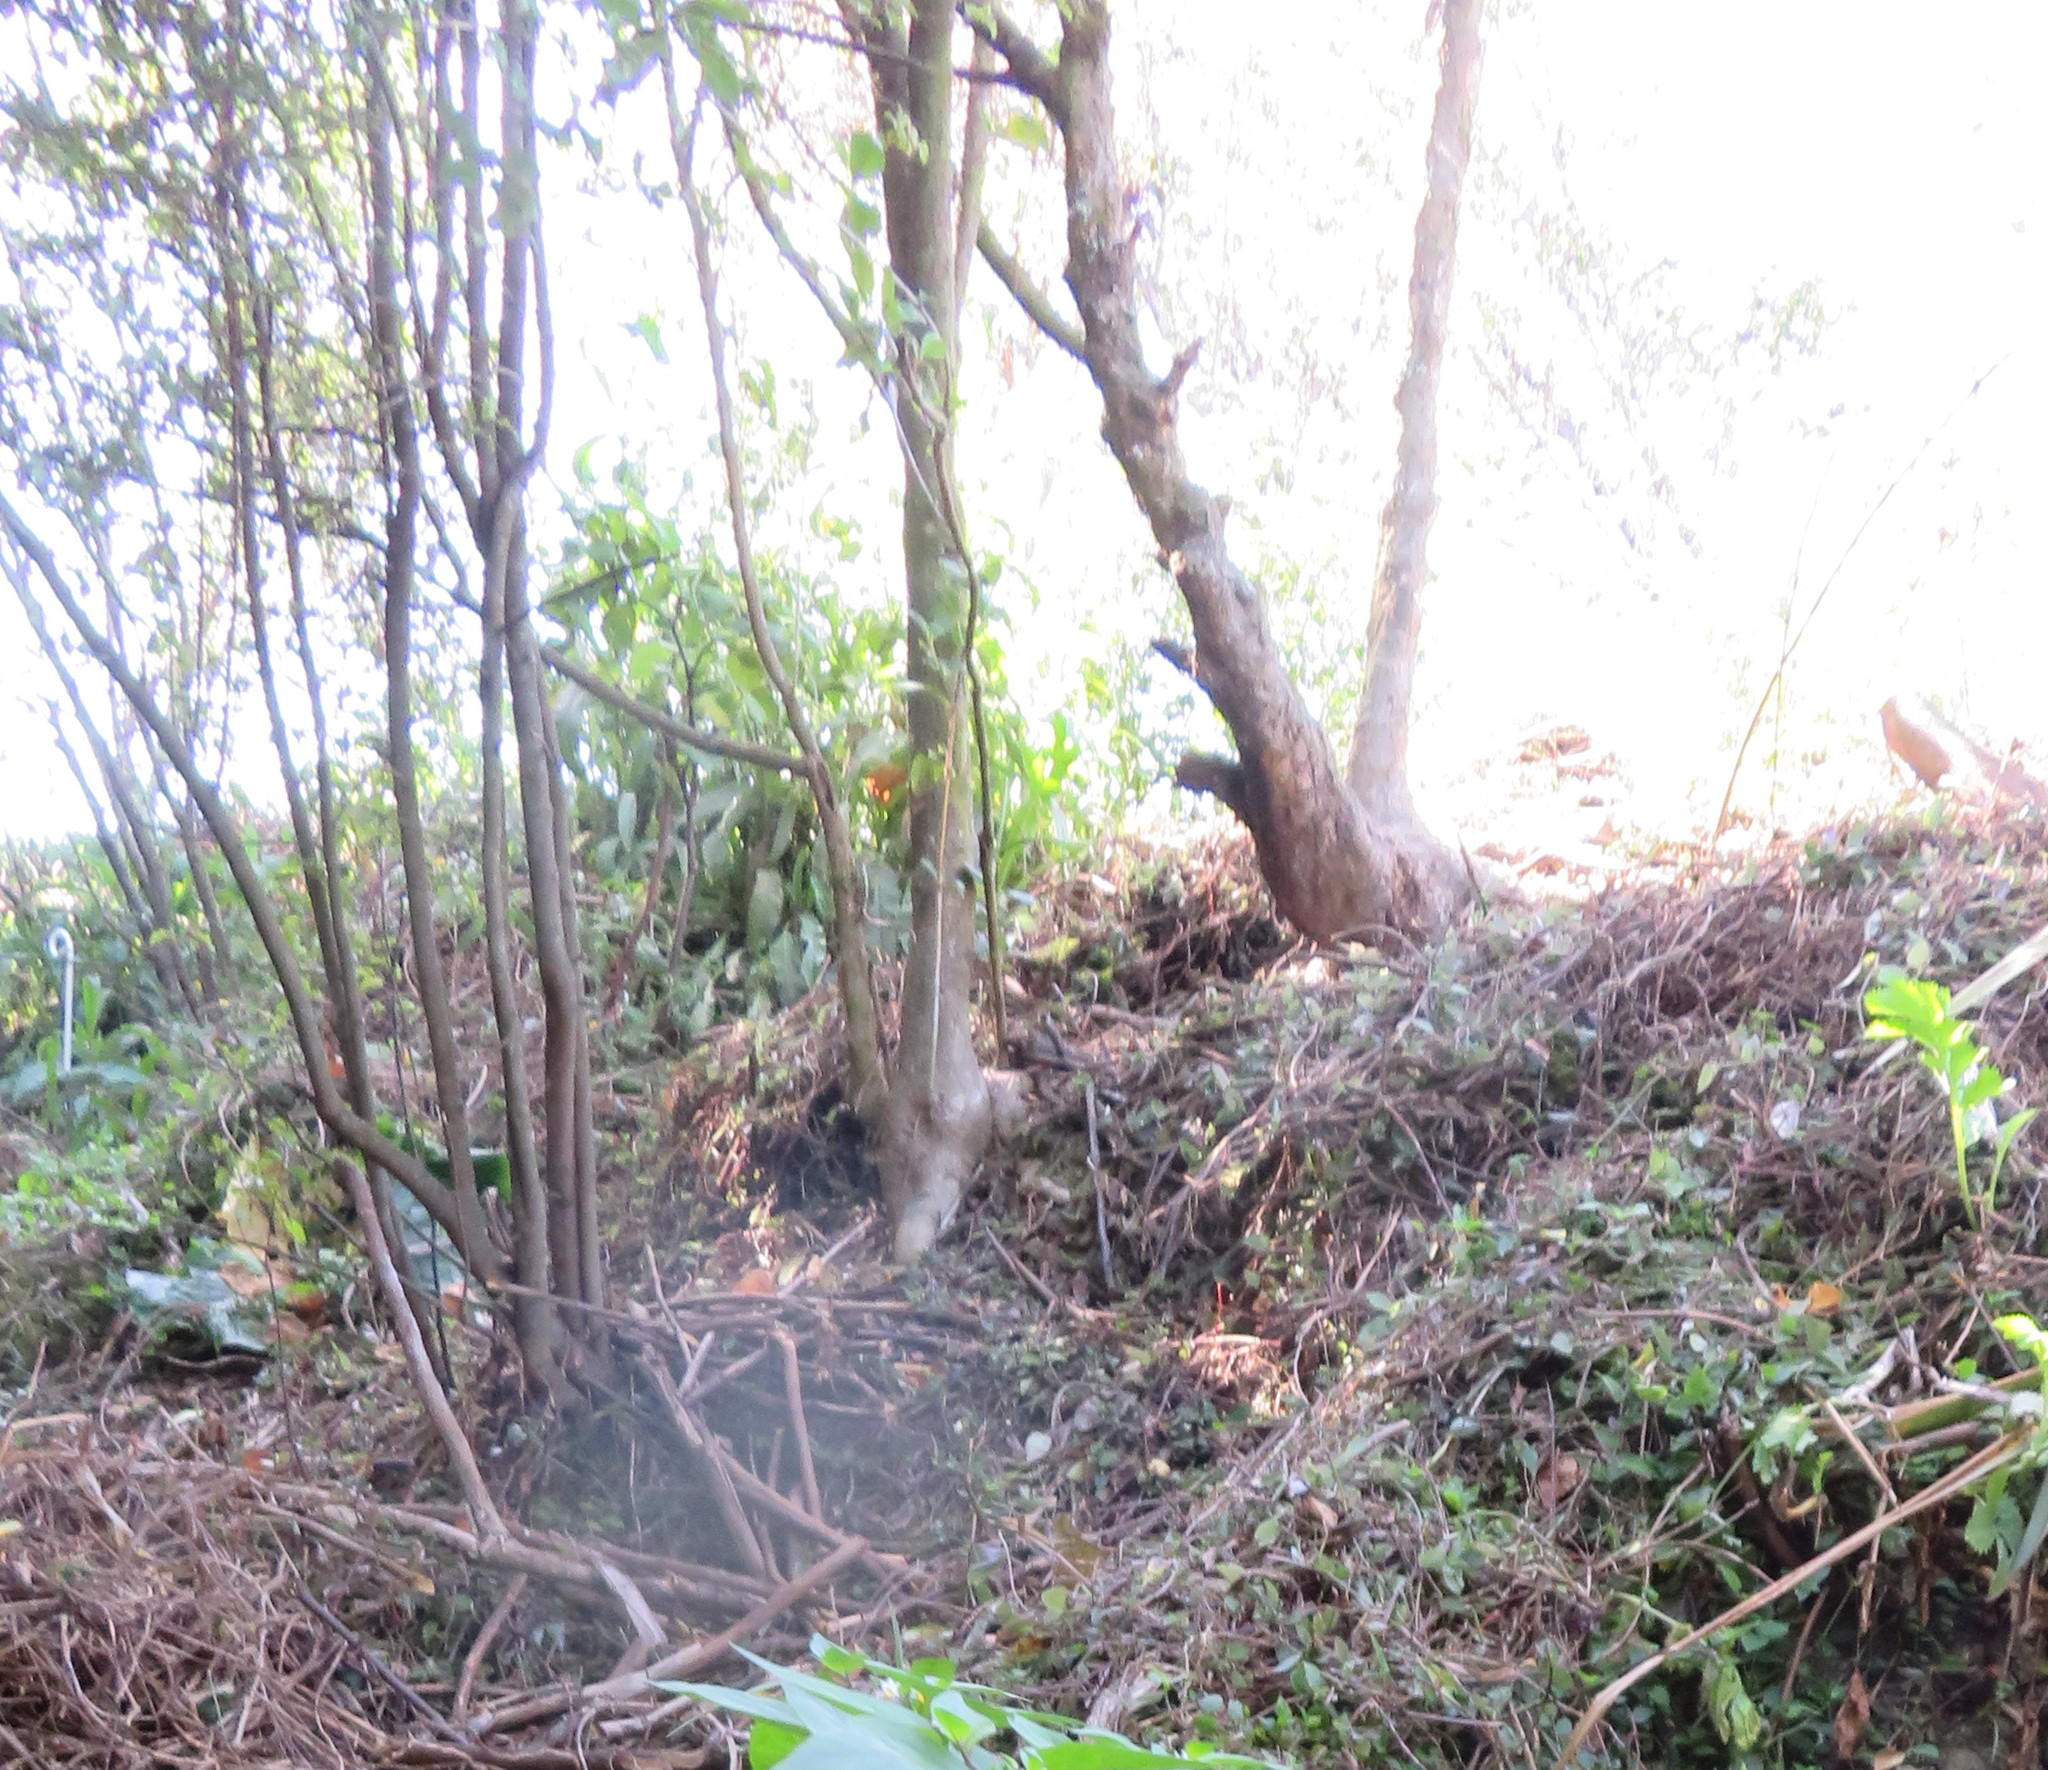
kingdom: Plantae
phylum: Tracheophyta
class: Liliopsida
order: Commelinales
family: Commelinaceae
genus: Tradescantia
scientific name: Tradescantia fluminensis
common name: Wandering-jew
